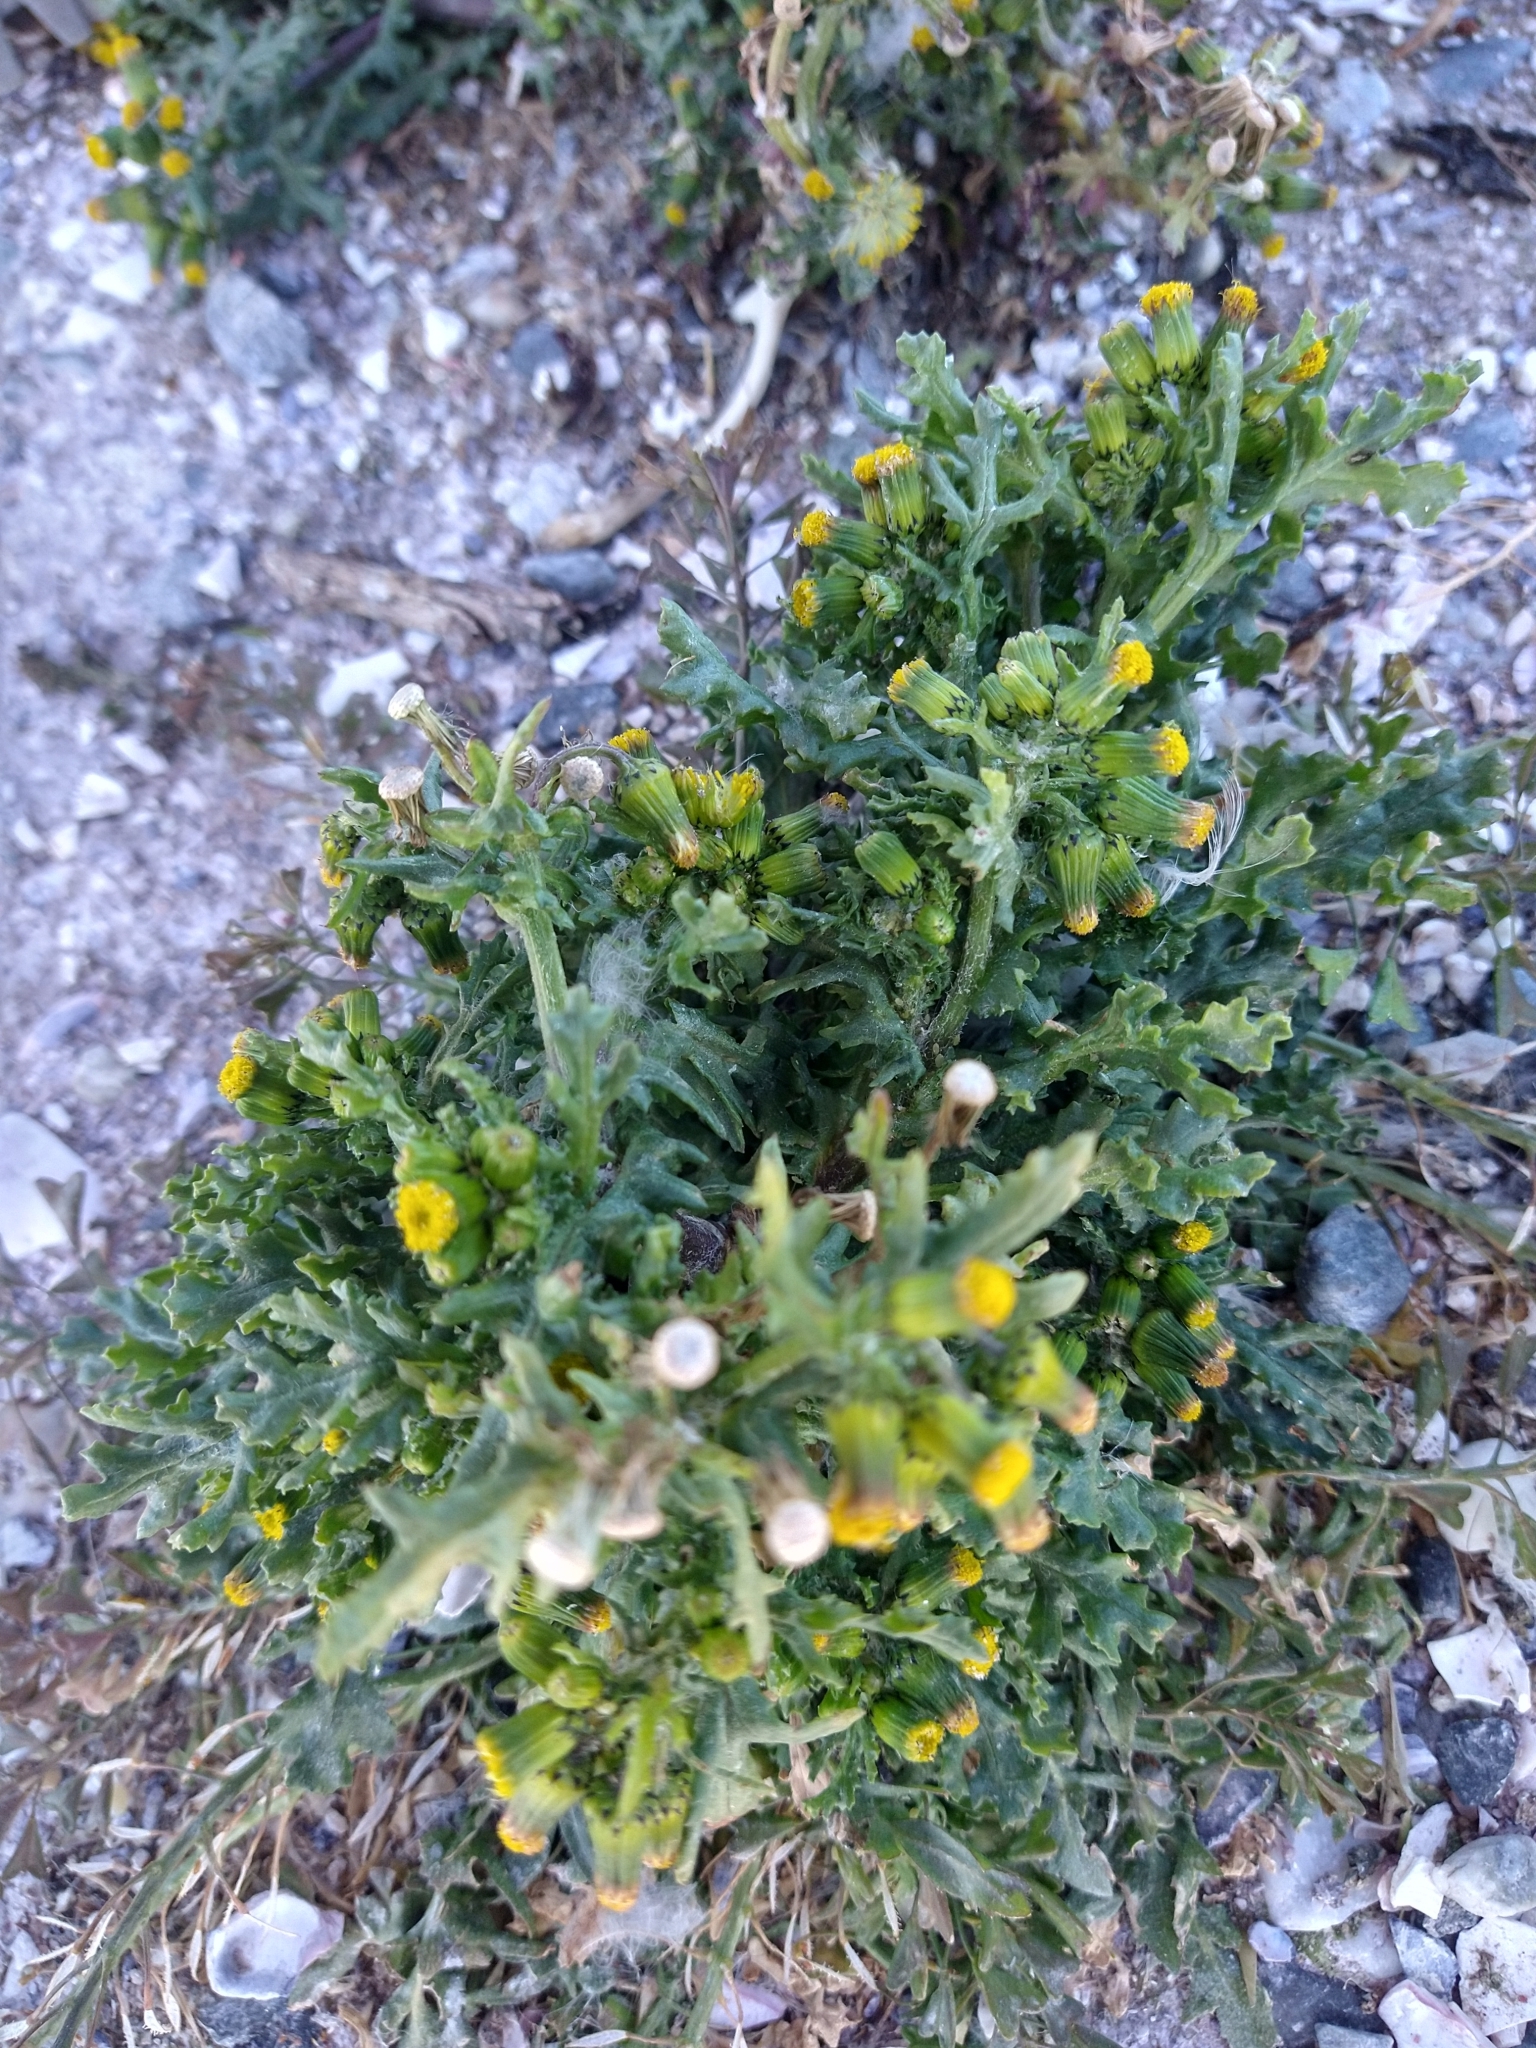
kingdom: Plantae
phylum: Tracheophyta
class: Magnoliopsida
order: Asterales
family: Asteraceae
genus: Senecio
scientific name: Senecio vulgaris
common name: Old-man-in-the-spring
